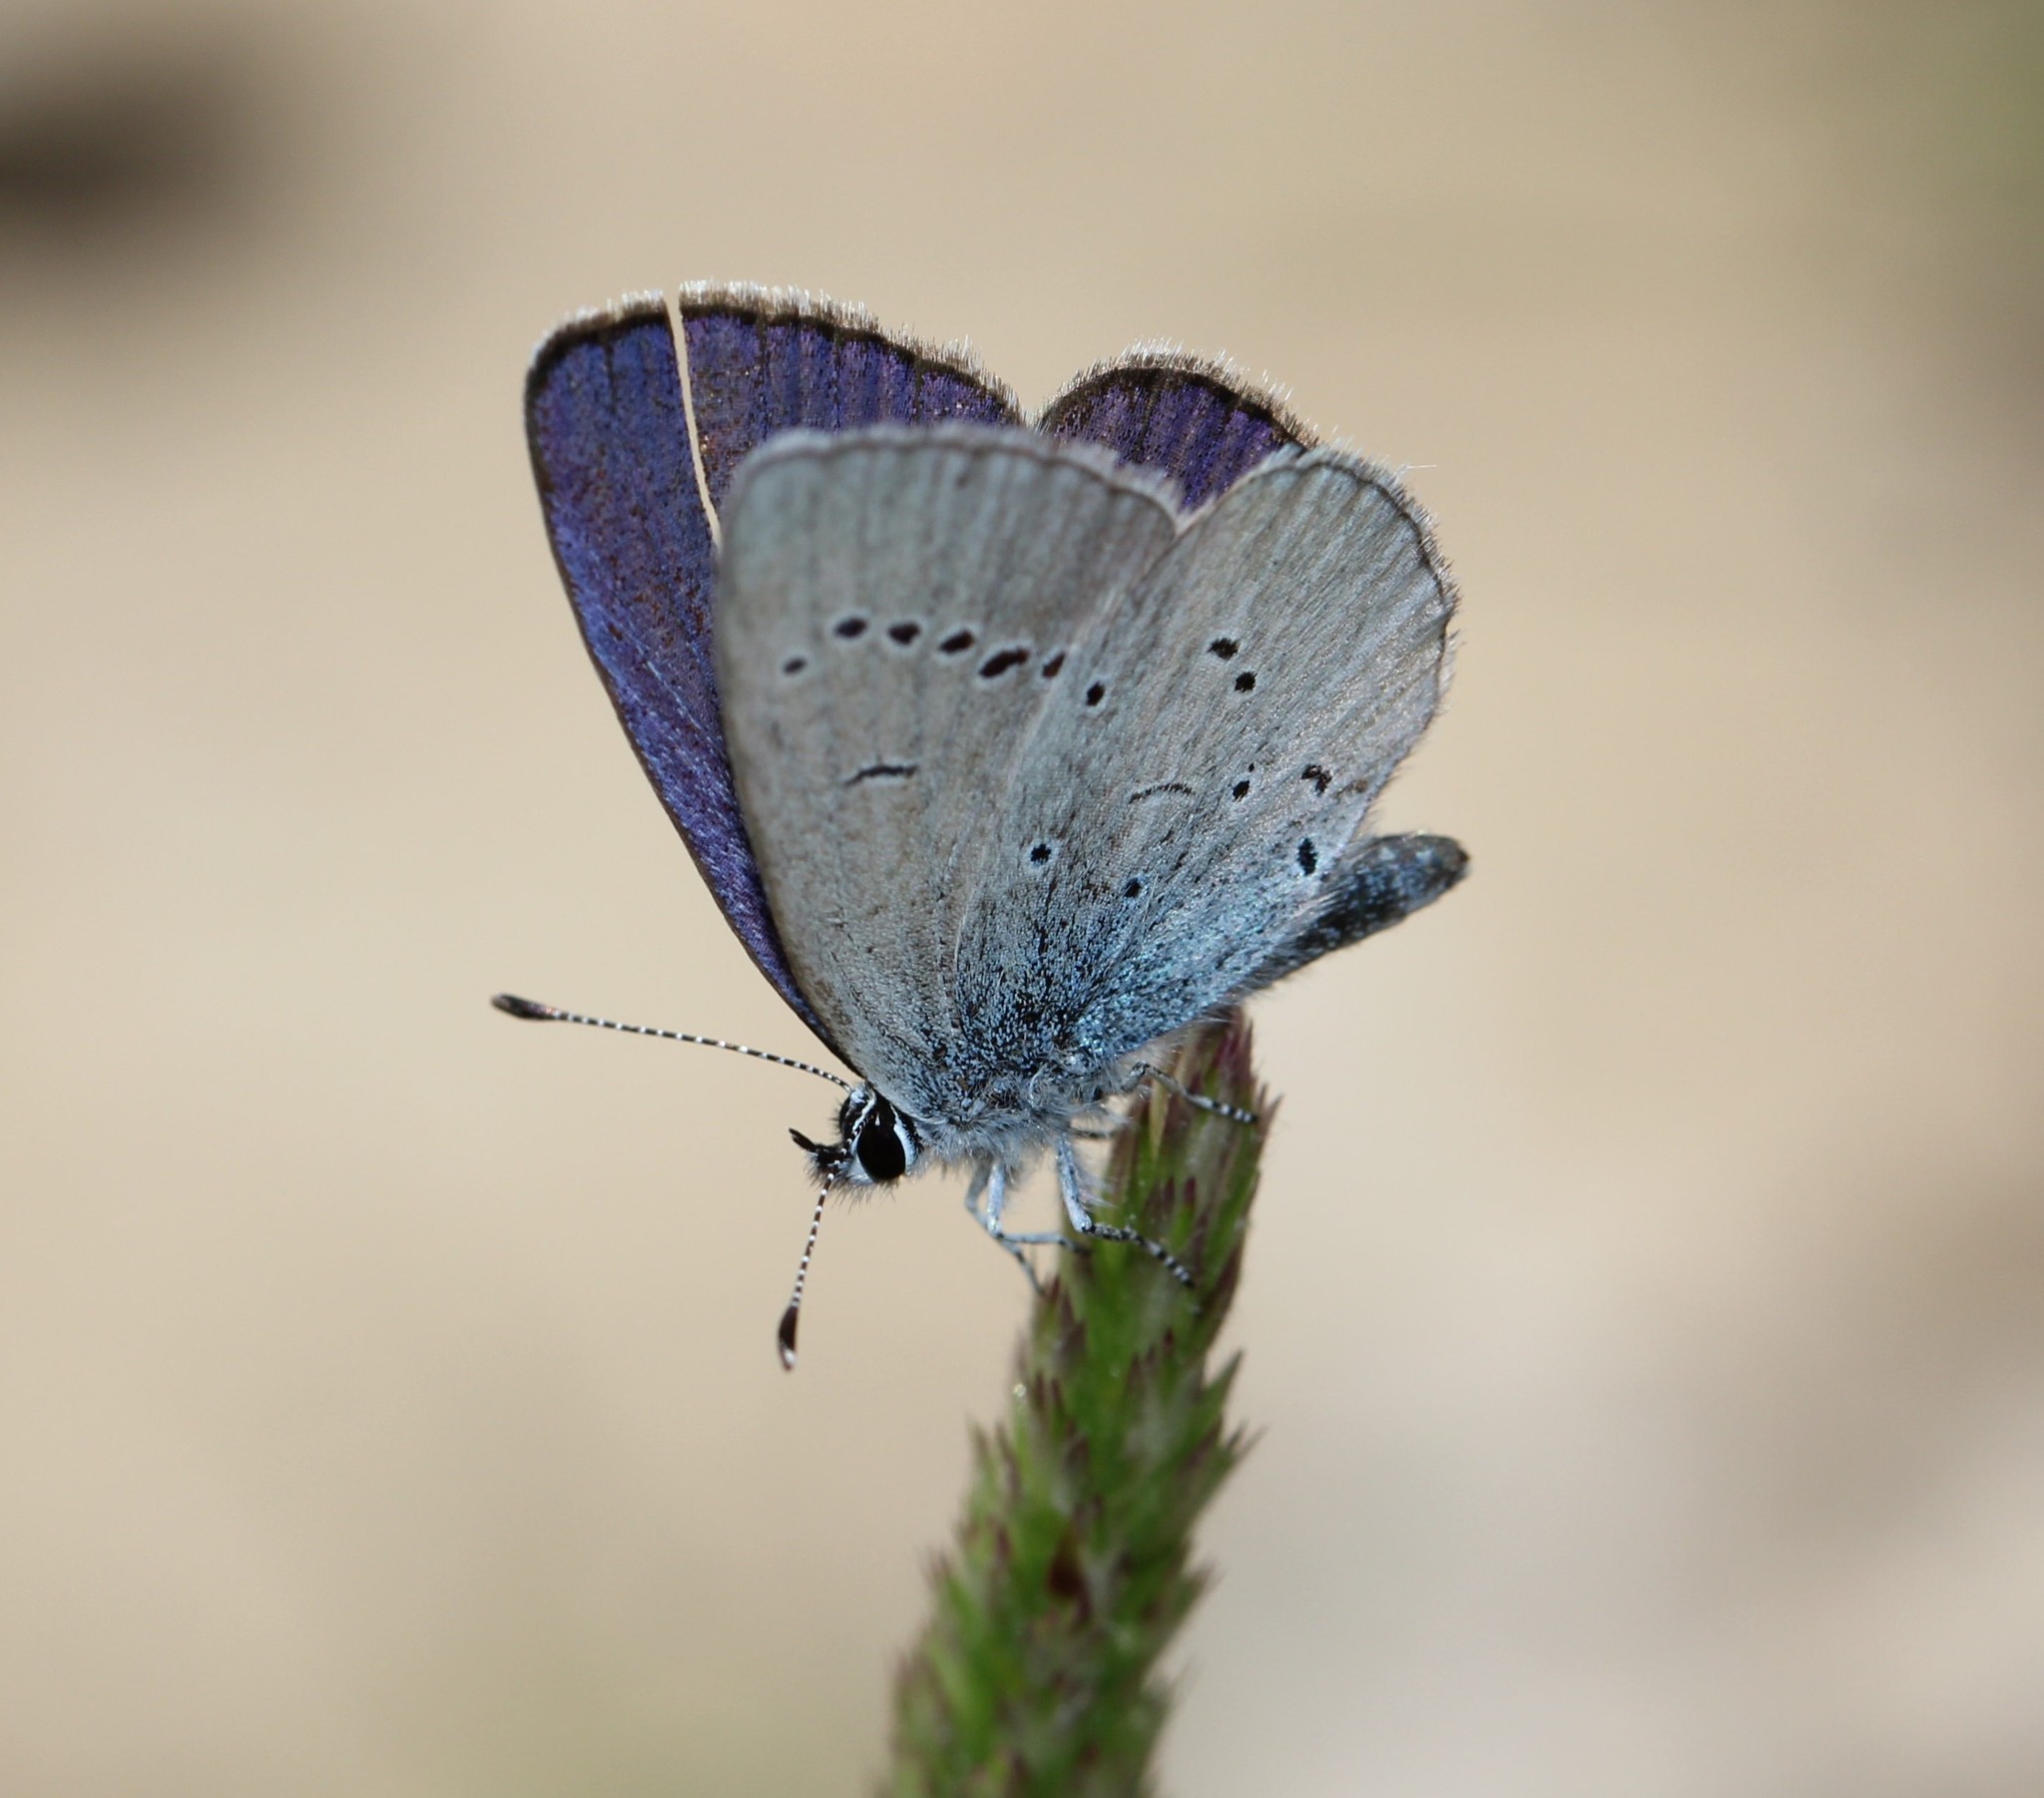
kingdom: Animalia
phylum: Arthropoda
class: Insecta
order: Lepidoptera
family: Lycaenidae
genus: Everes
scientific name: Everes sebrus
